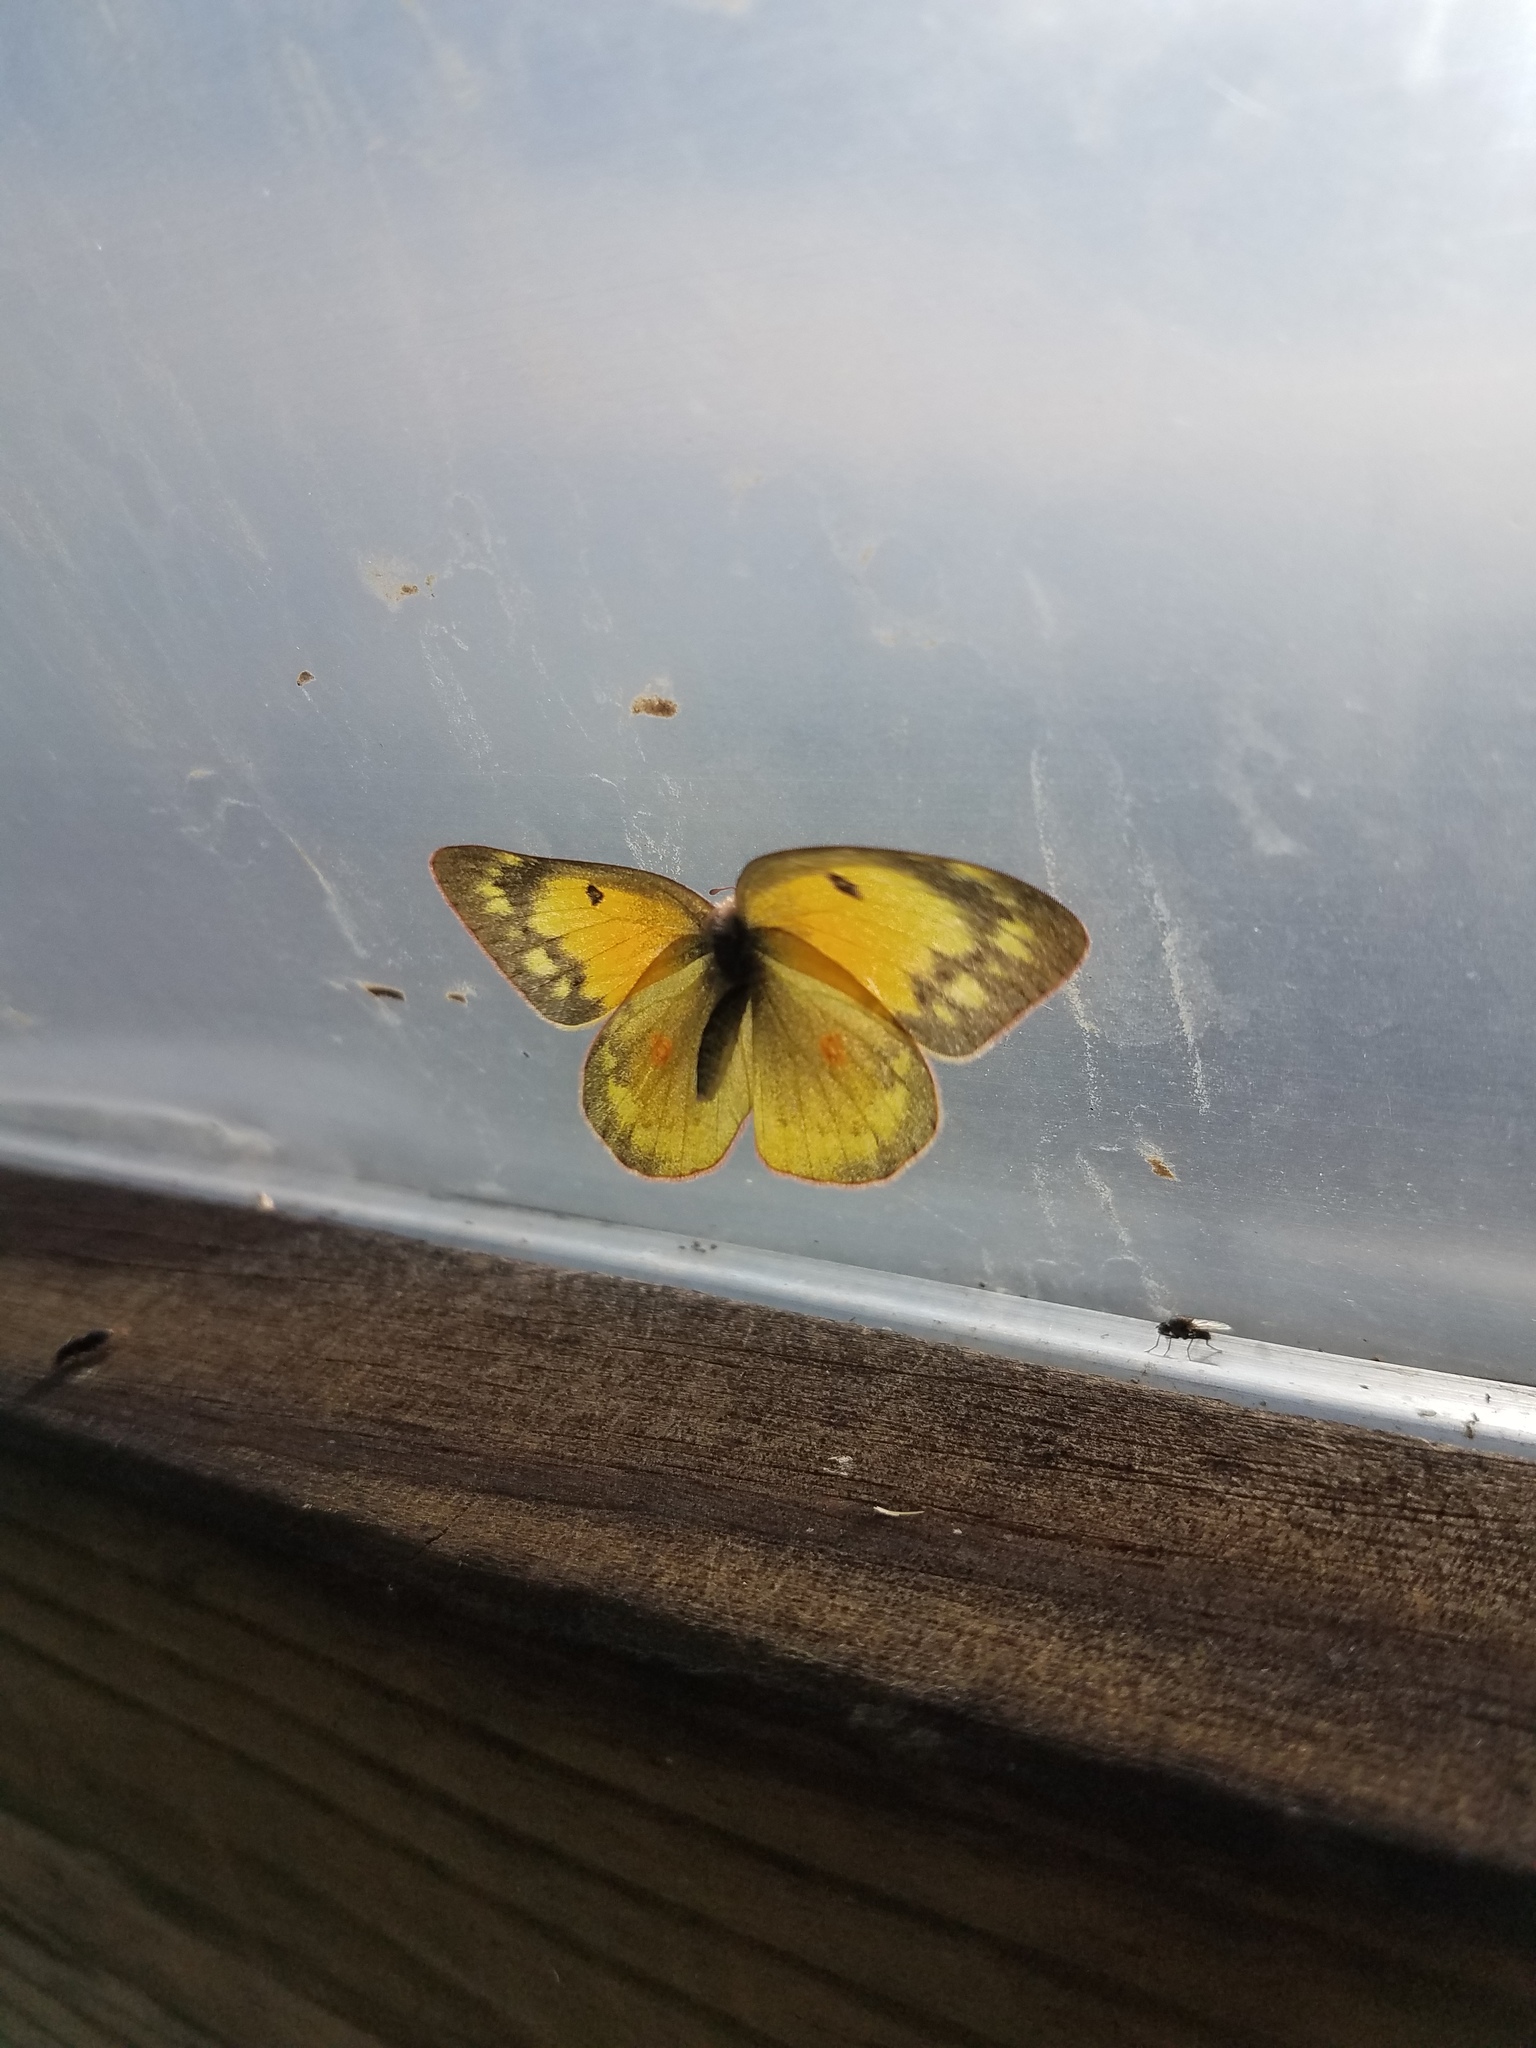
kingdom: Animalia
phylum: Arthropoda
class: Insecta
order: Lepidoptera
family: Pieridae
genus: Colias
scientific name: Colias eurytheme
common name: Alfalfa butterfly
